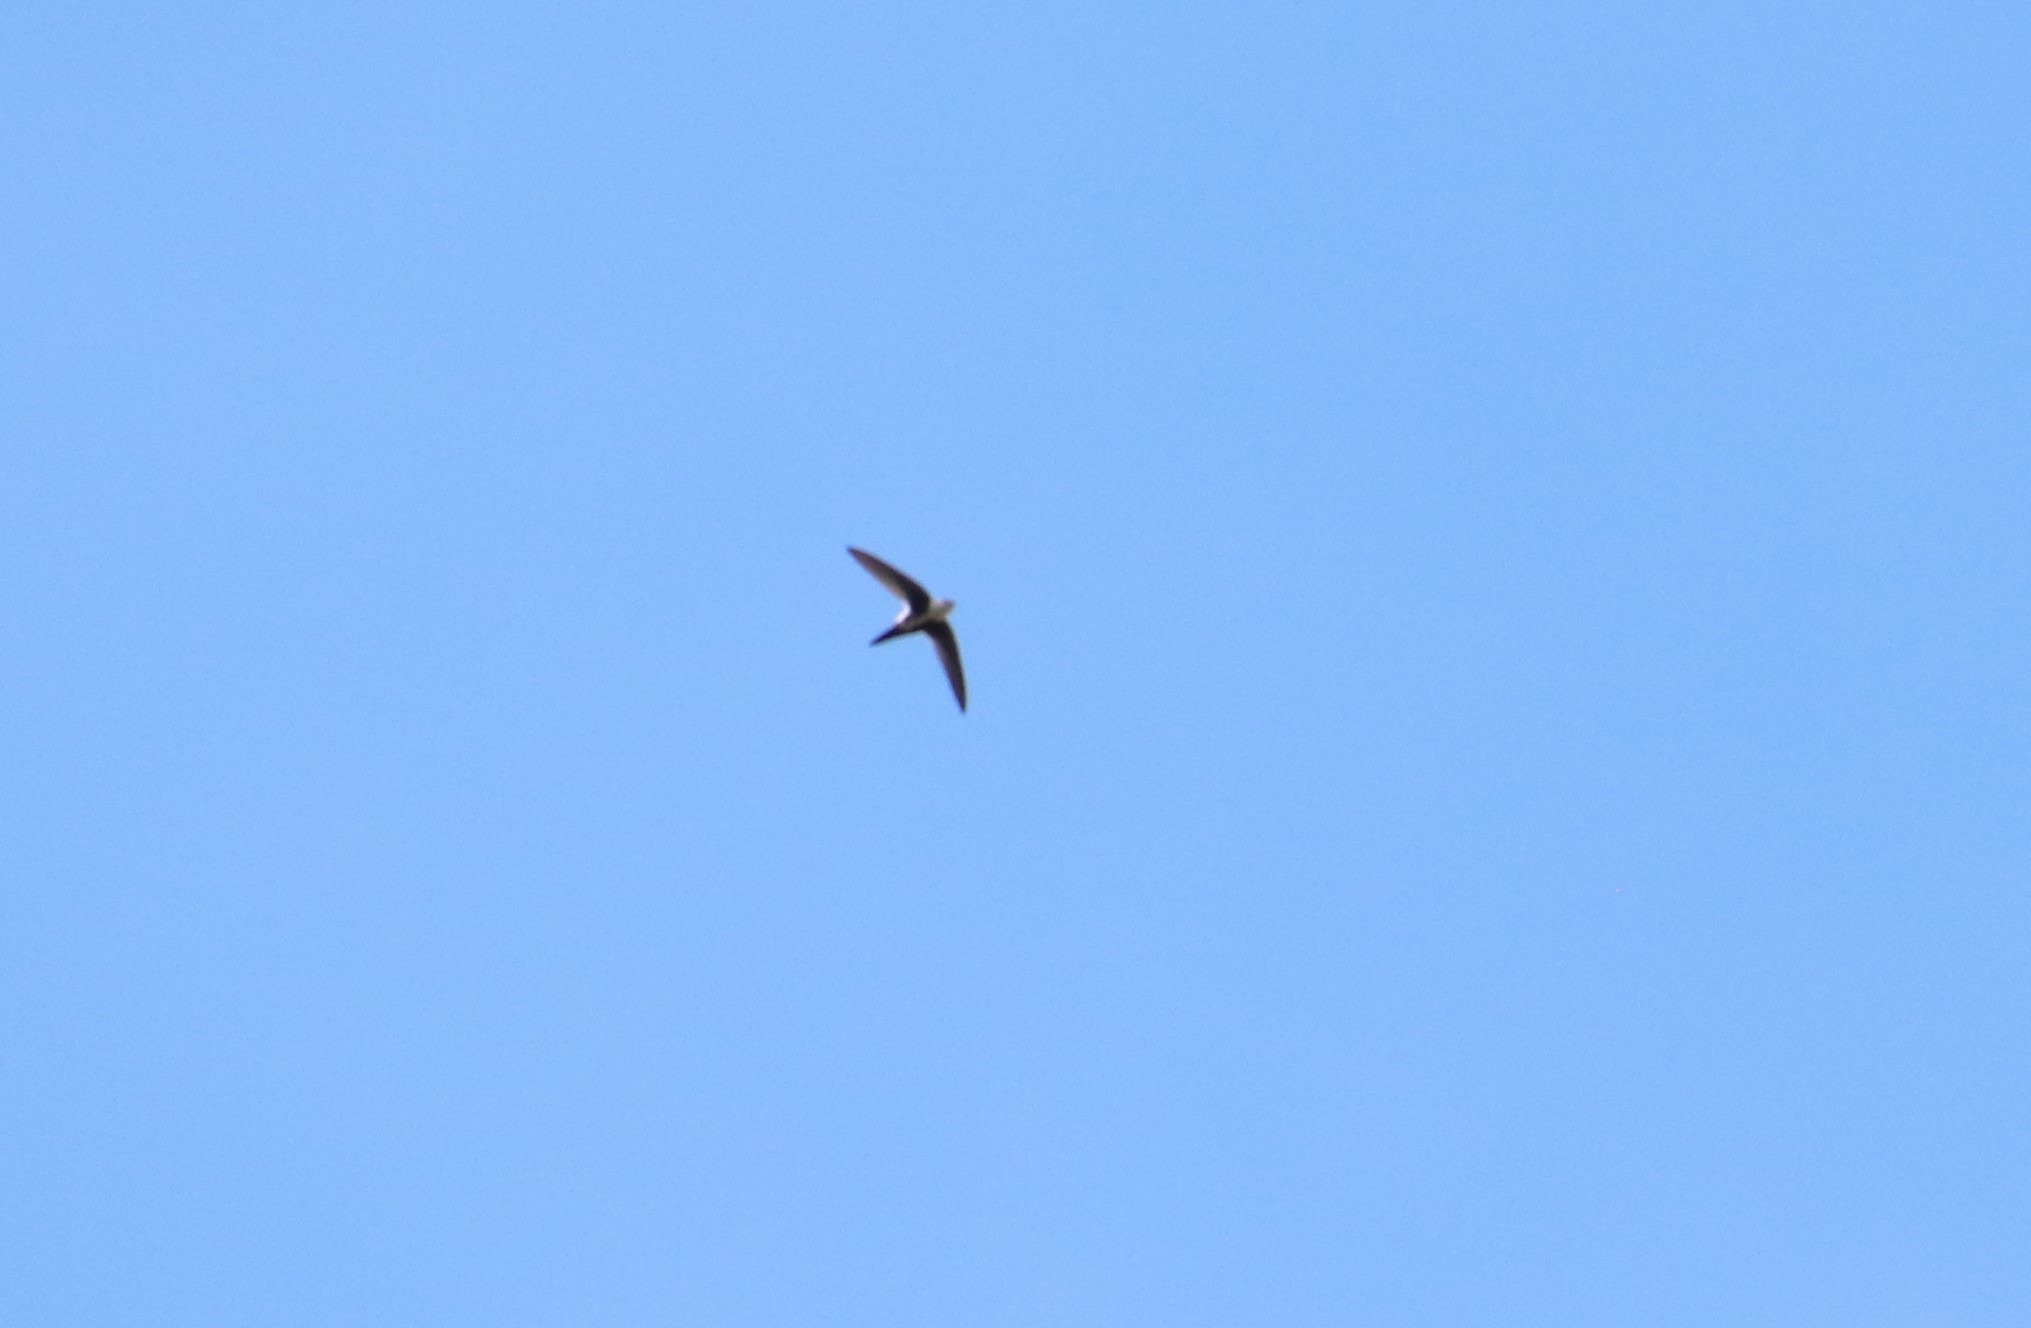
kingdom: Animalia
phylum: Chordata
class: Aves
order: Apodiformes
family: Apodidae
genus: Aeronautes
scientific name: Aeronautes saxatalis
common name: White-throated swift
